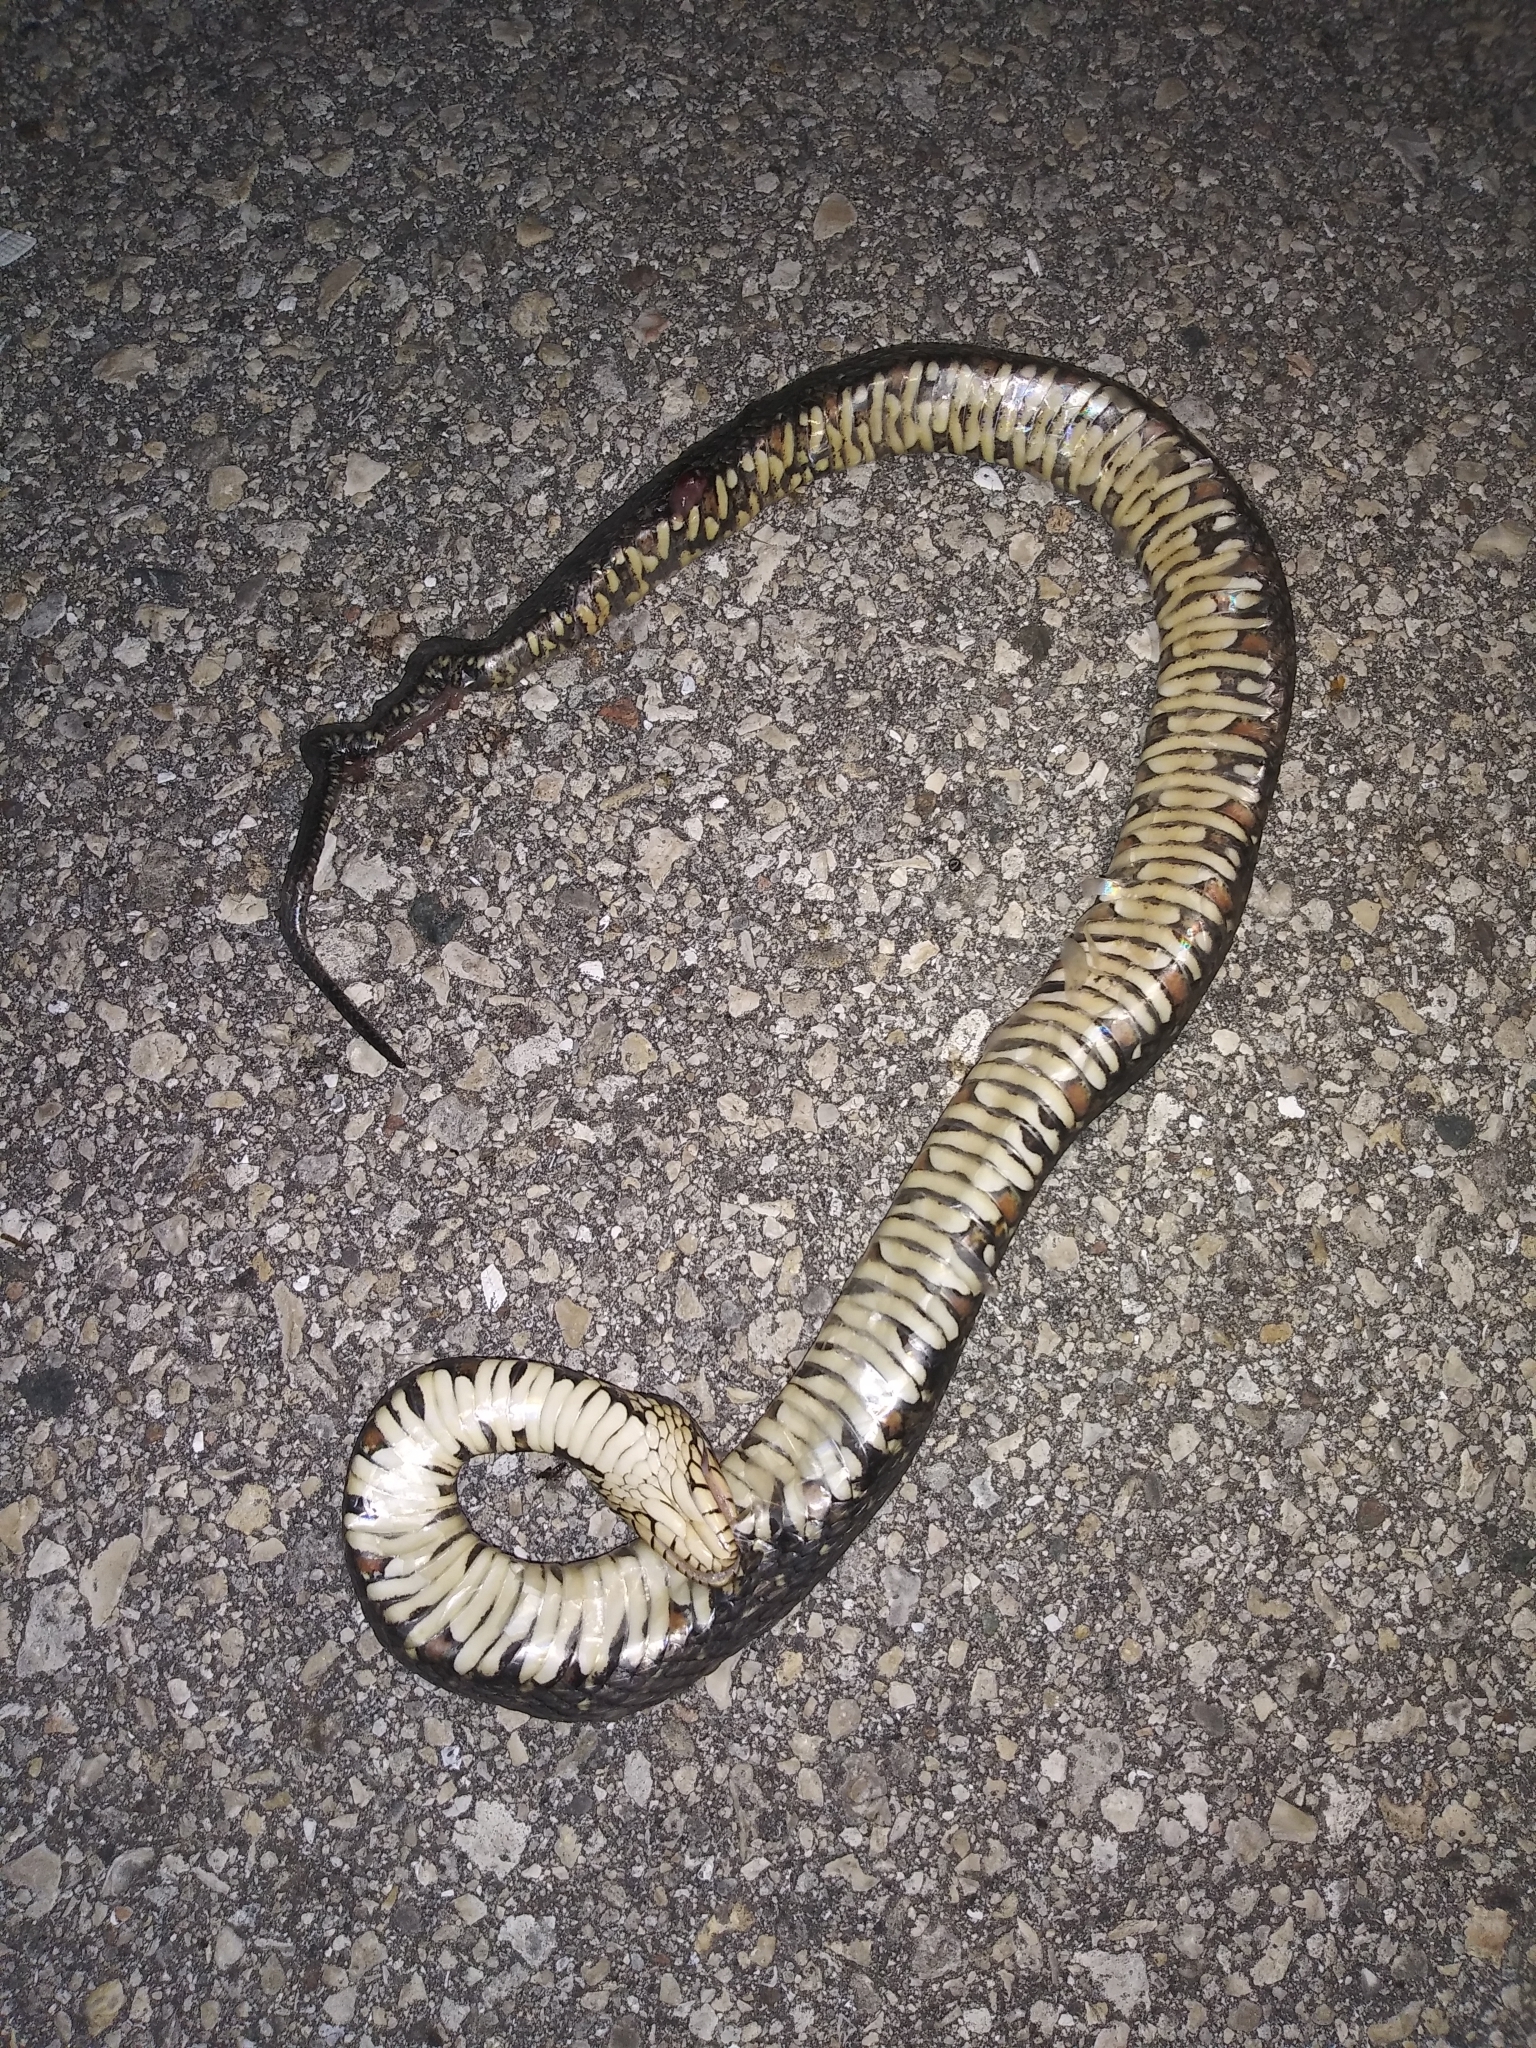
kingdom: Animalia
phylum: Chordata
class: Squamata
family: Colubridae
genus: Nerodia
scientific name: Nerodia fasciata
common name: Southern water snake
